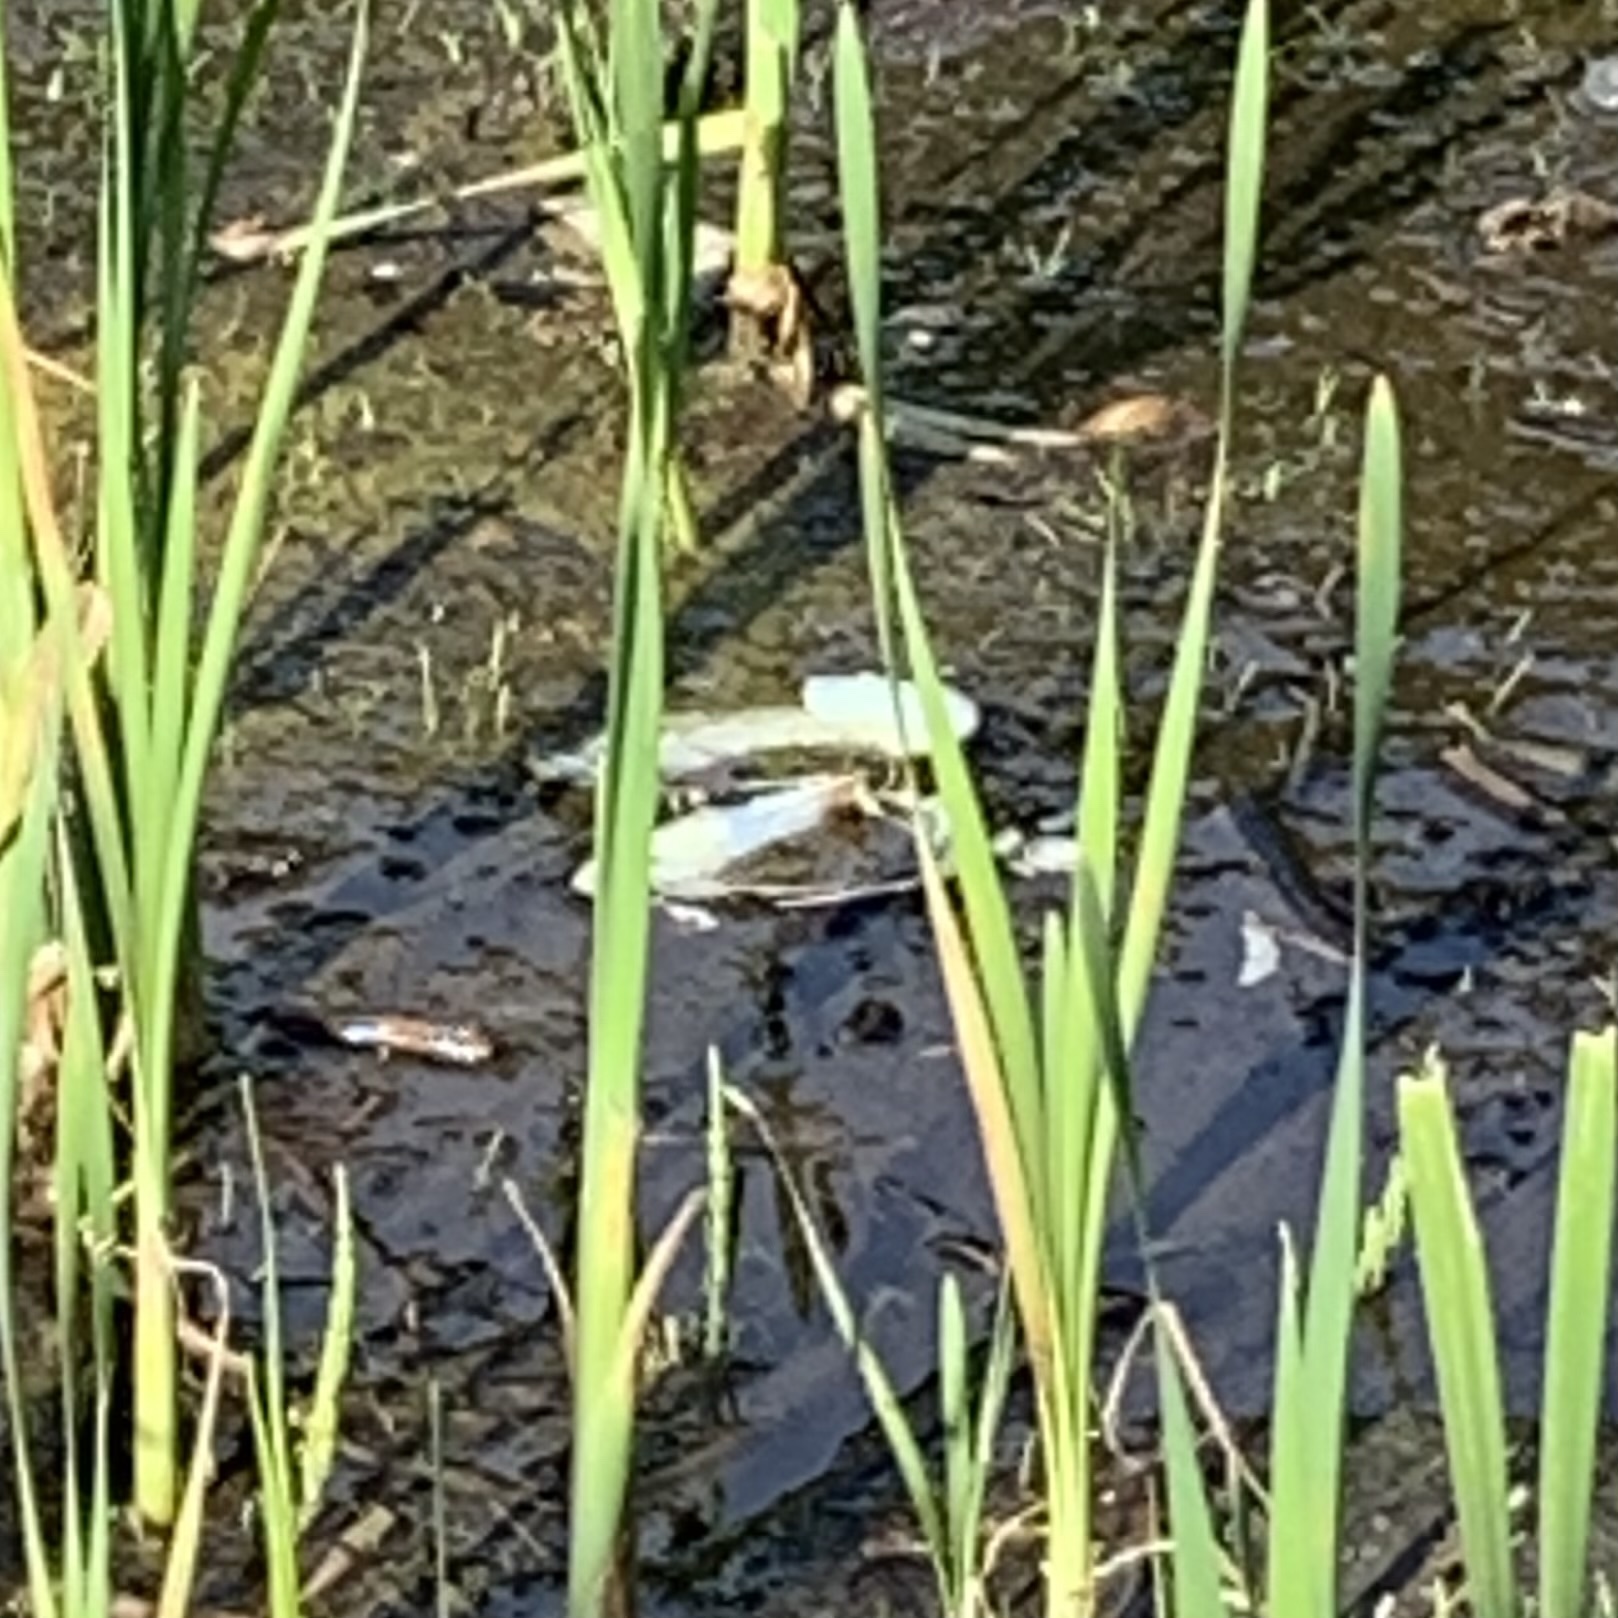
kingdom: Animalia
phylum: Mollusca
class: Bivalvia
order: Unionida
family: Unionidae
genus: Pyganodon
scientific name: Pyganodon cataracta
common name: Eastern floater
